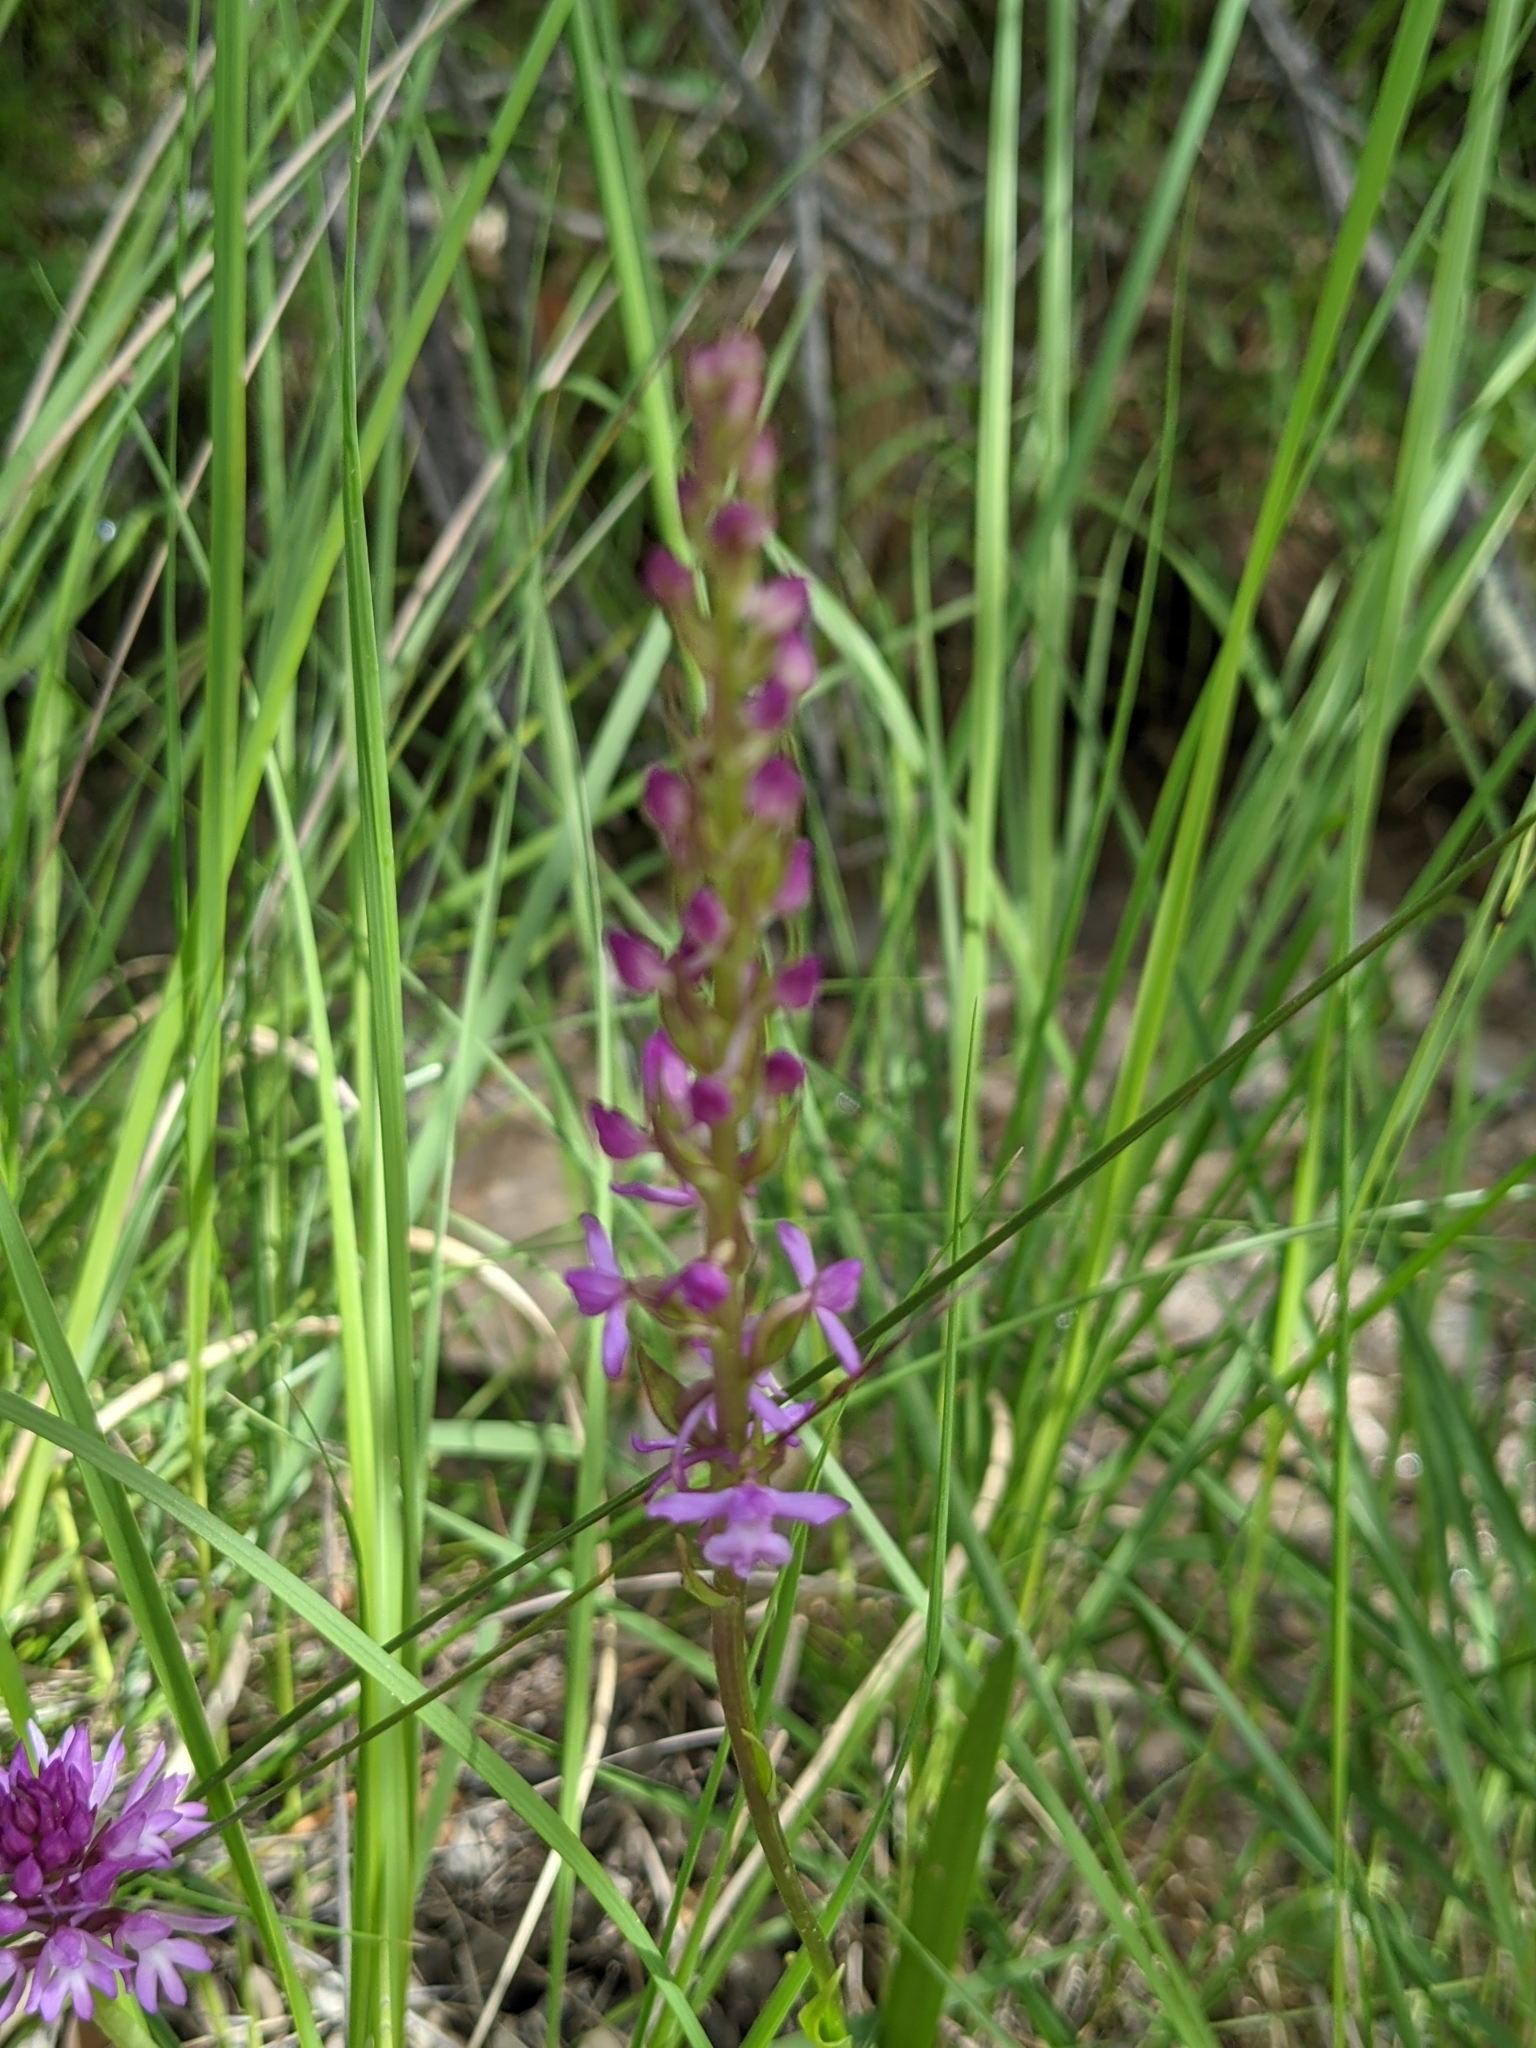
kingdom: Plantae
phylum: Tracheophyta
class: Liliopsida
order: Asparagales
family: Orchidaceae
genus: Gymnadenia
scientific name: Gymnadenia conopsea
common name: Fragrant orchid
